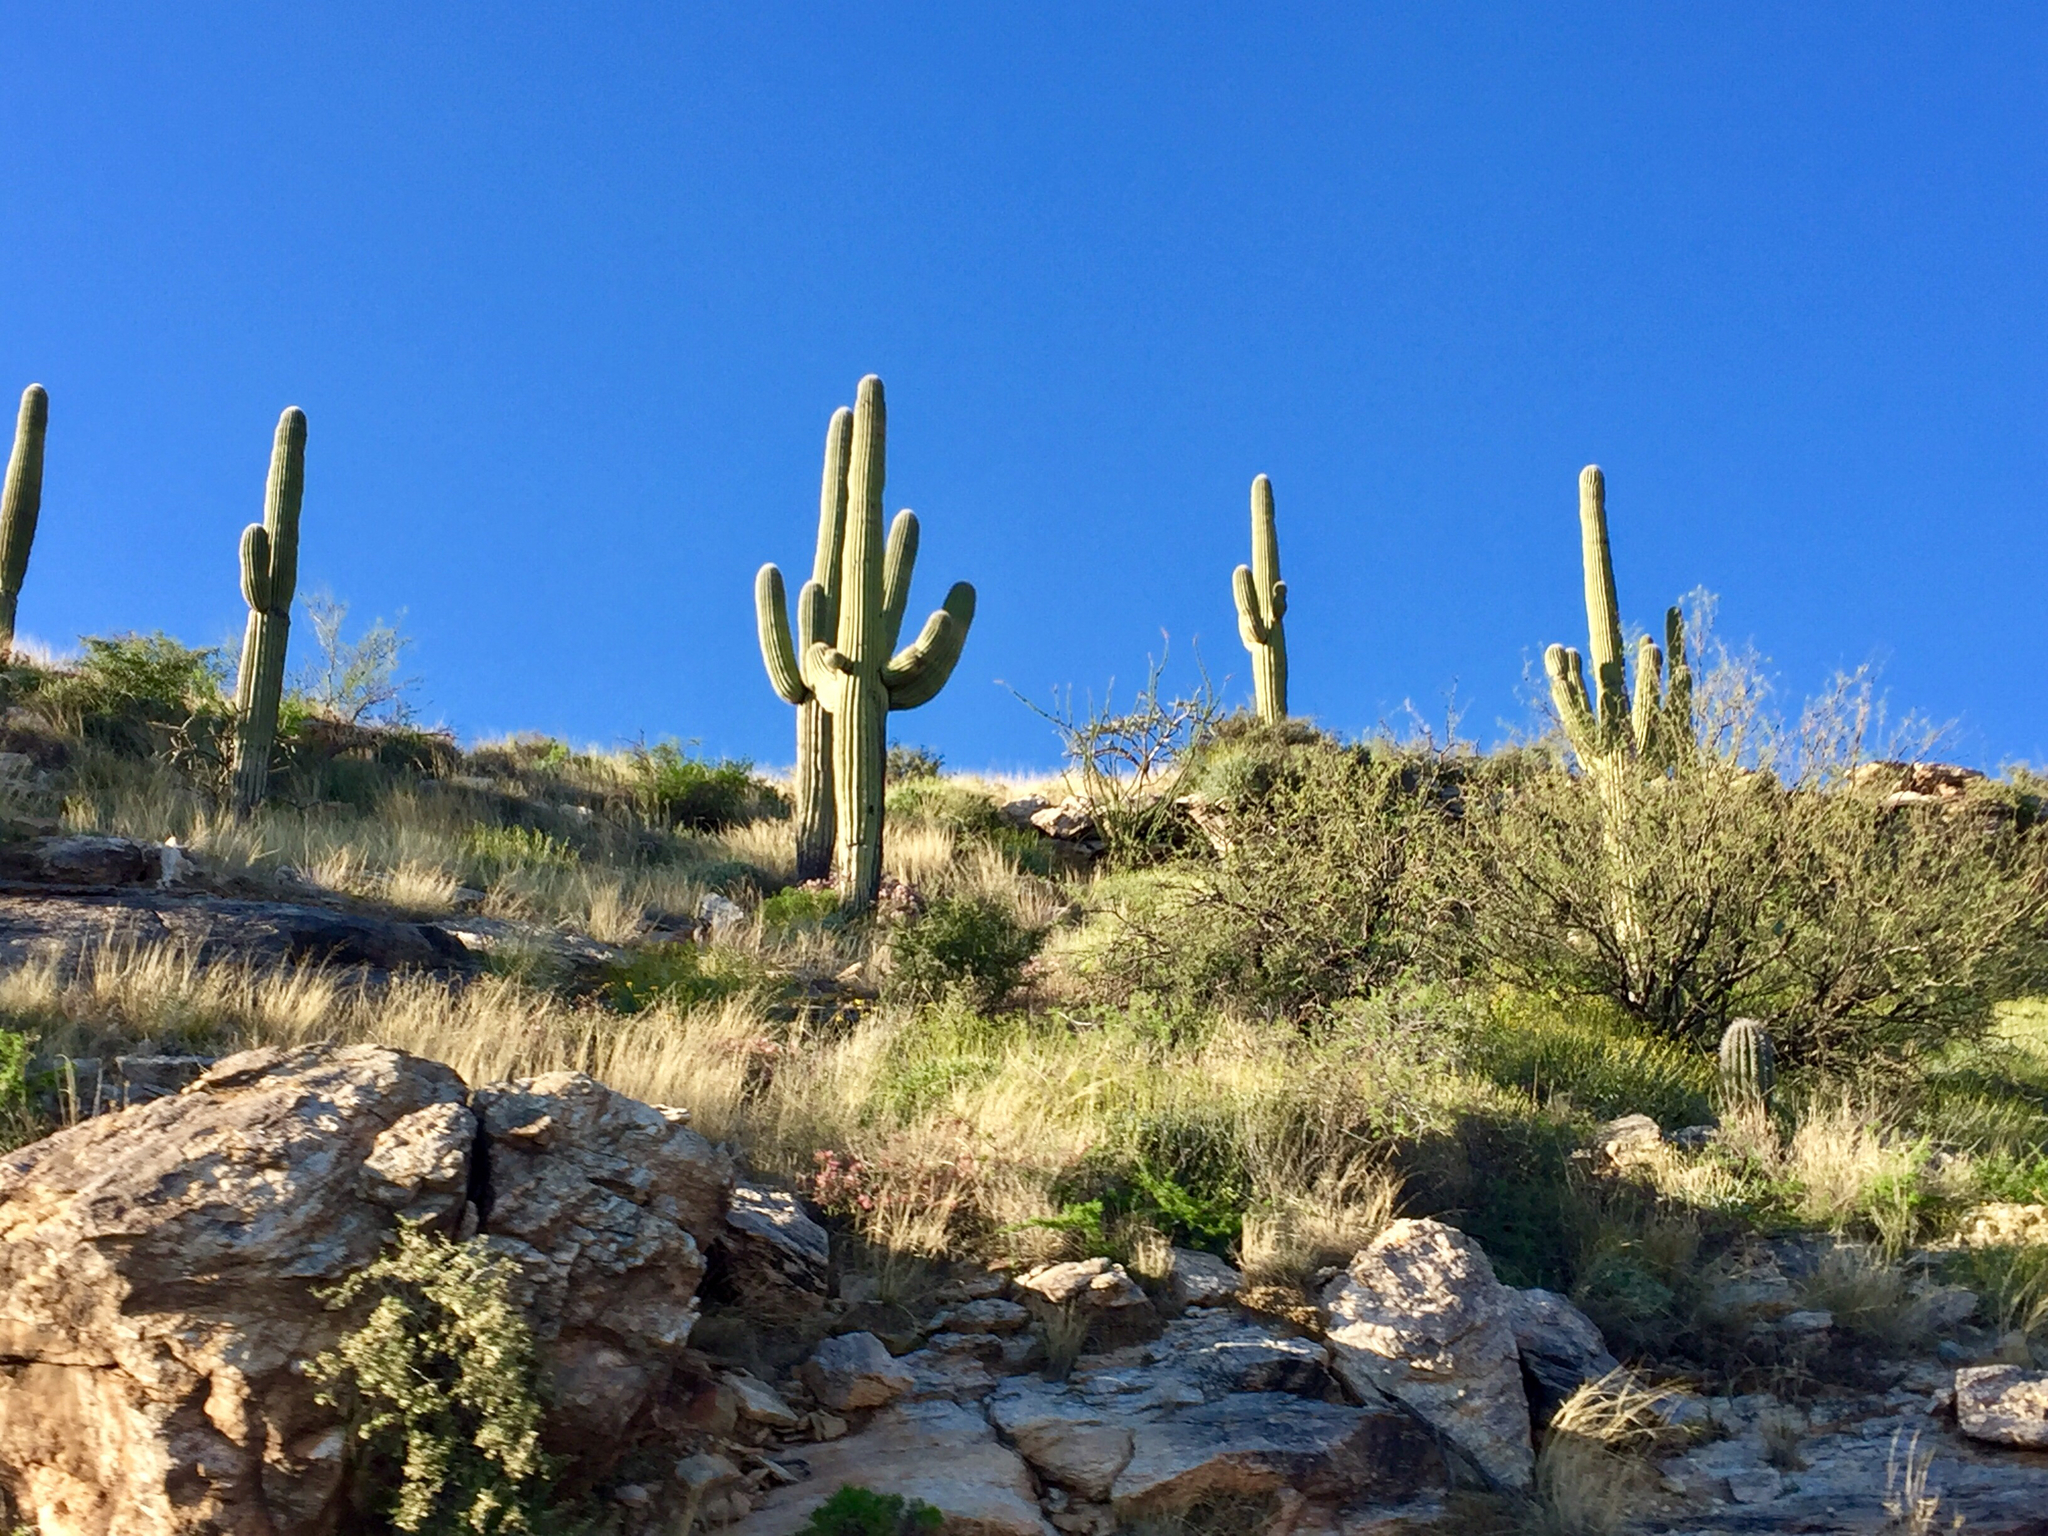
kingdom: Plantae
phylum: Tracheophyta
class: Magnoliopsida
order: Caryophyllales
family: Cactaceae
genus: Carnegiea
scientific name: Carnegiea gigantea
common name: Saguaro
